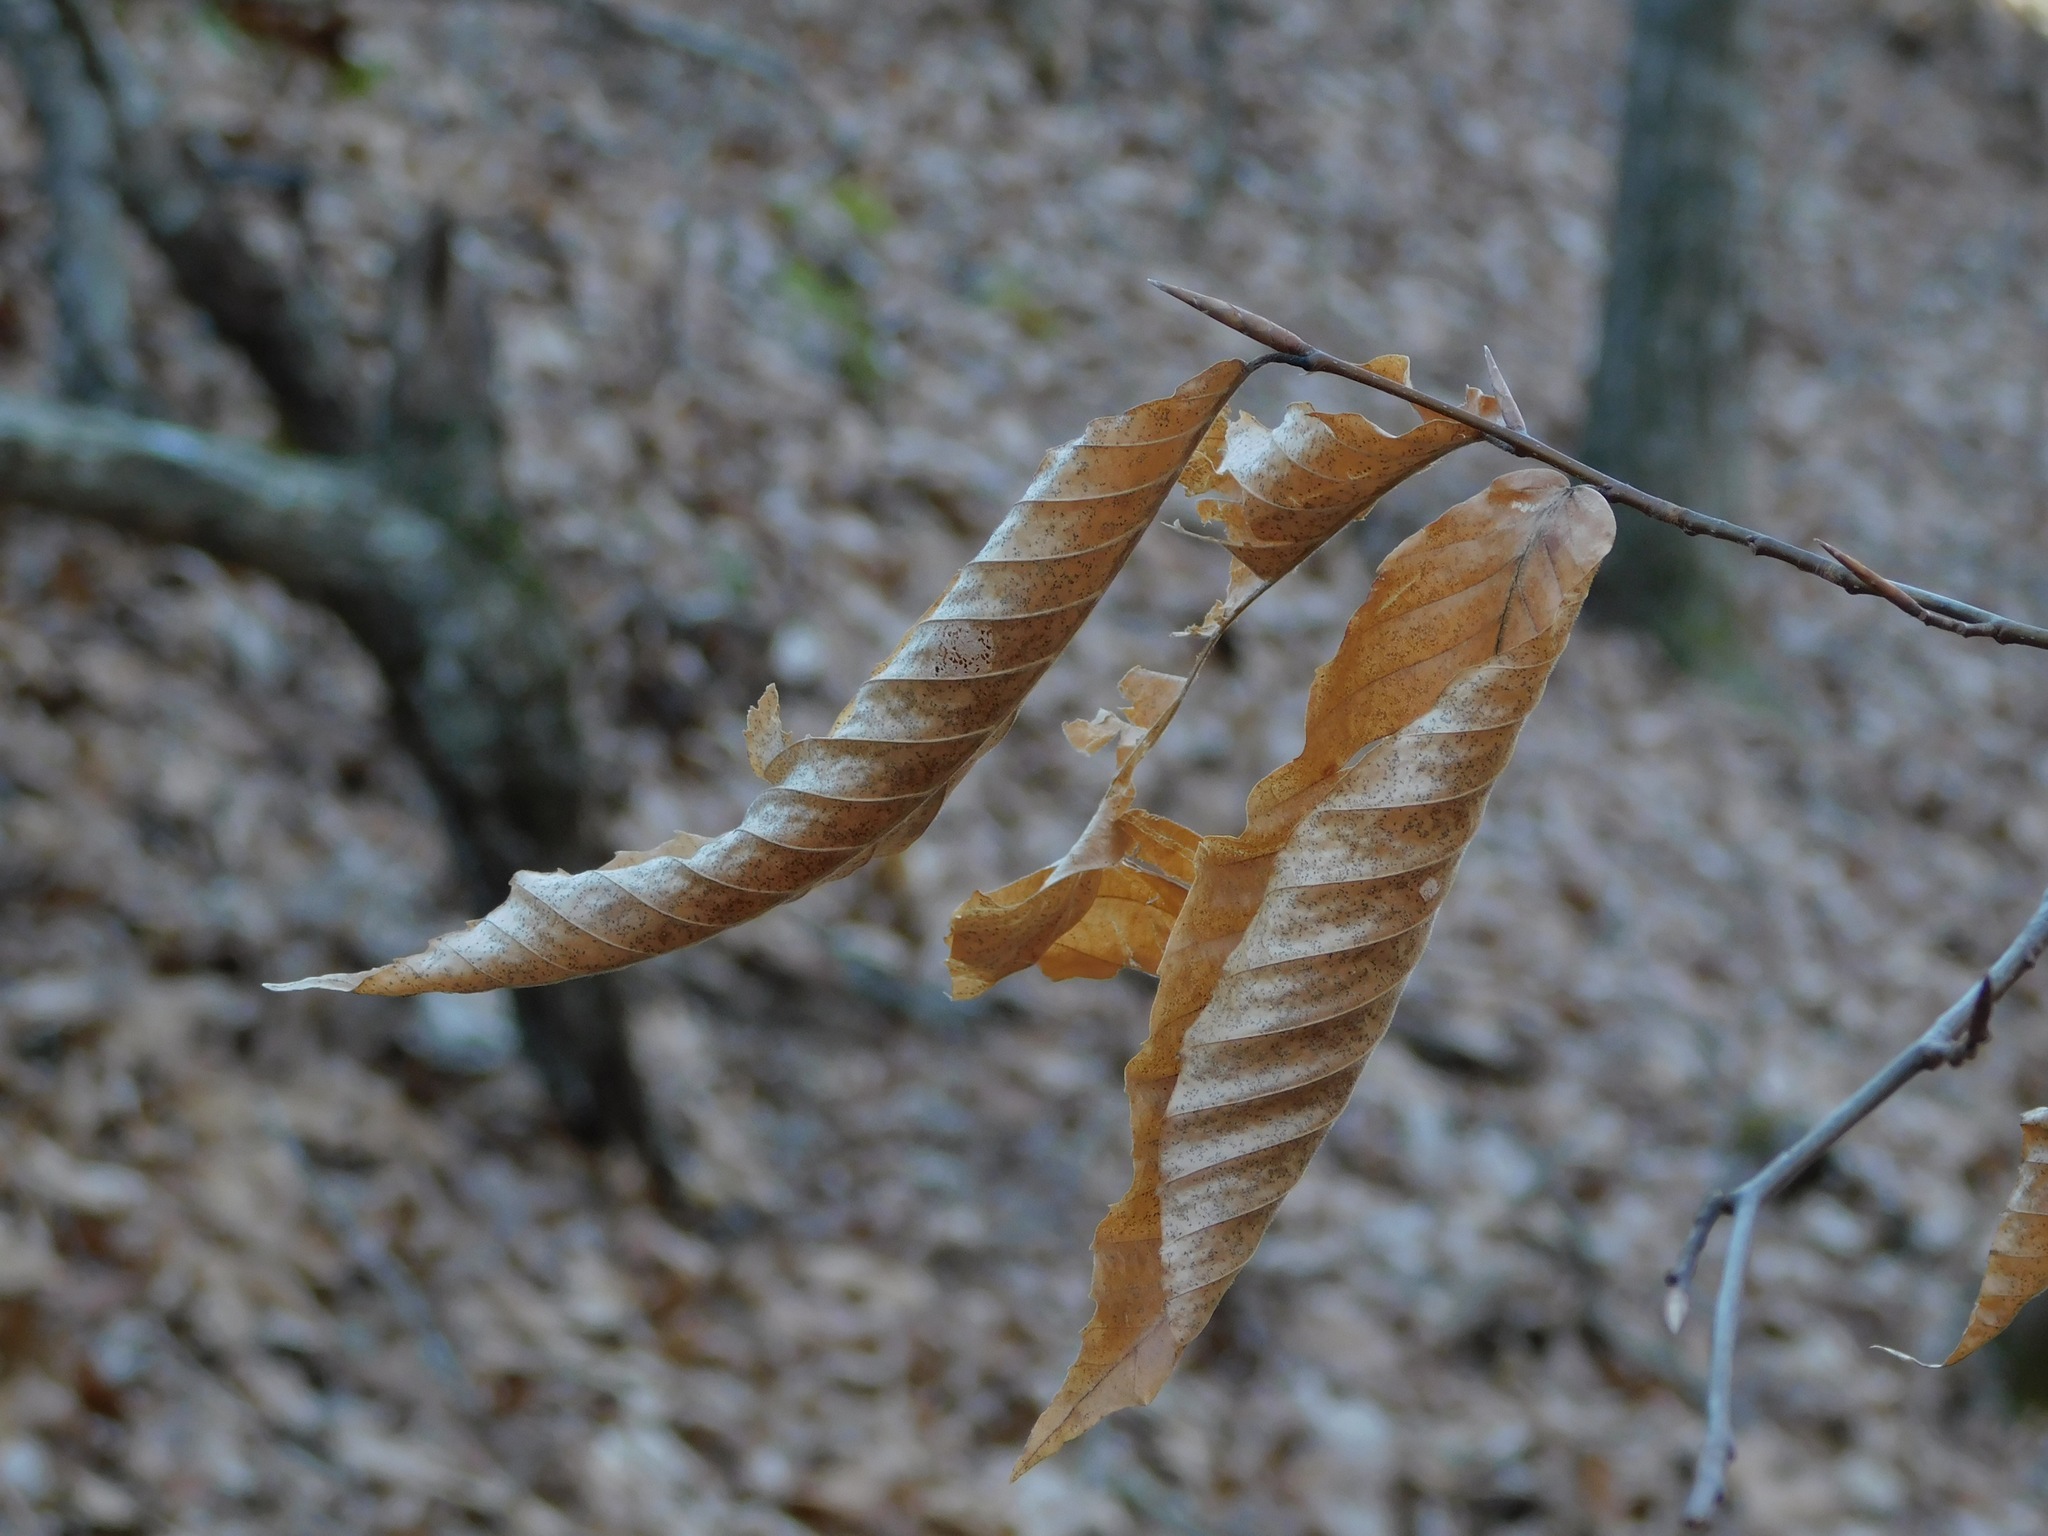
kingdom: Plantae
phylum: Tracheophyta
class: Magnoliopsida
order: Fagales
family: Fagaceae
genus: Fagus
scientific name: Fagus grandifolia
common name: American beech
